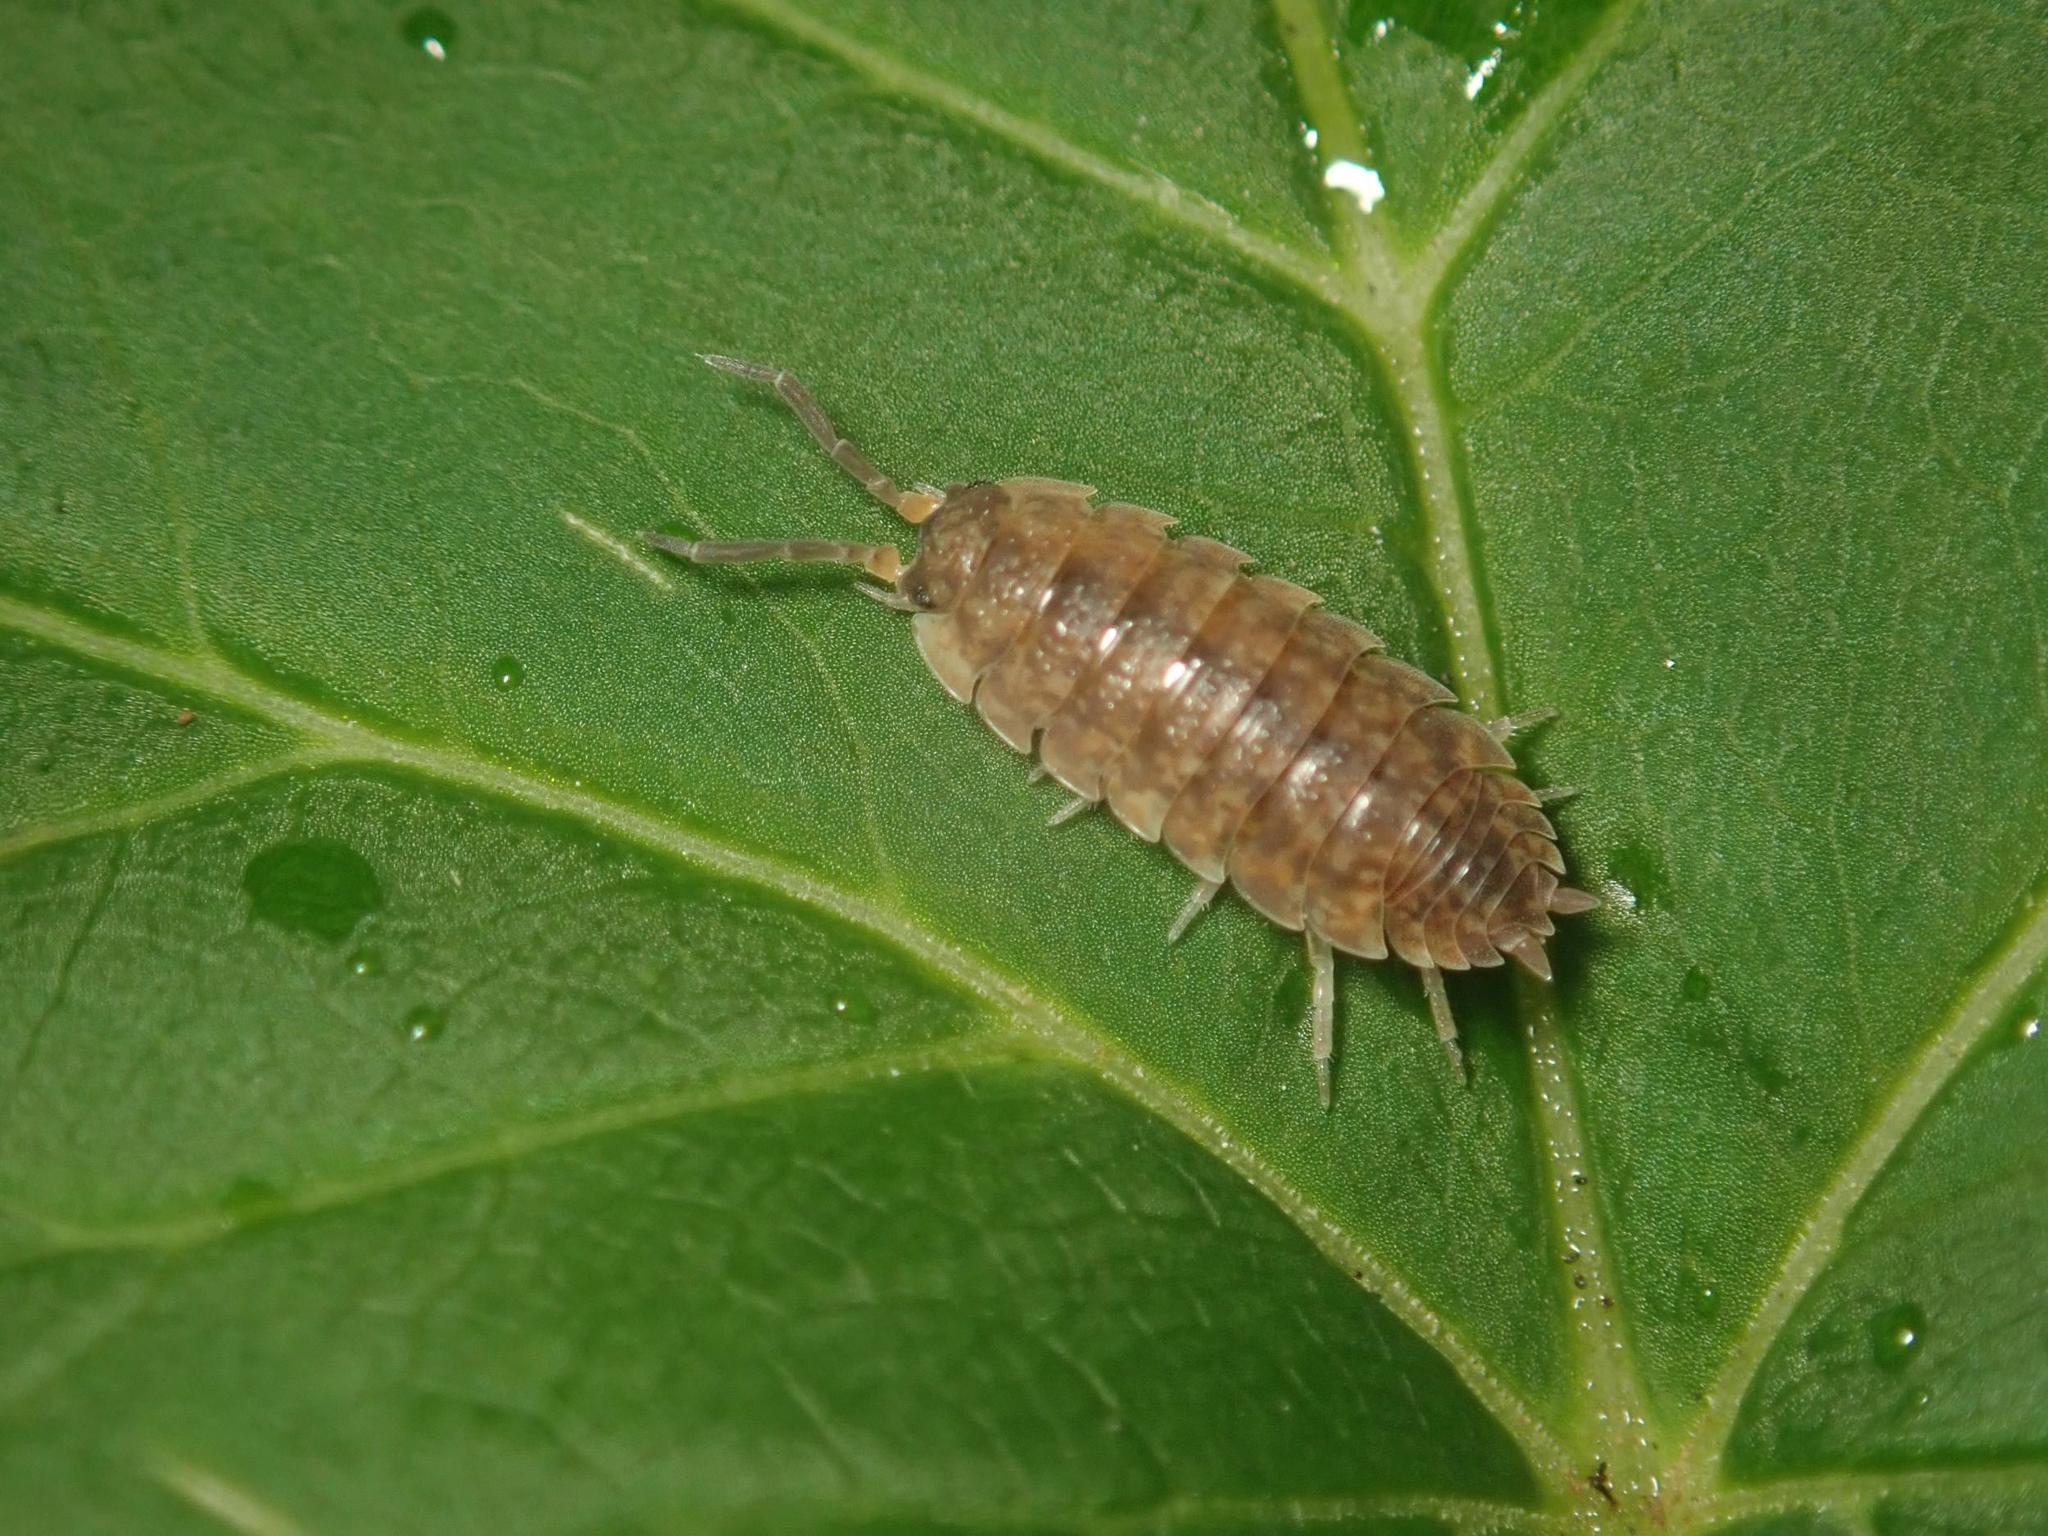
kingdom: Animalia
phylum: Arthropoda
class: Malacostraca
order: Isopoda
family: Porcellionidae
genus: Porcellio
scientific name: Porcellio scaber
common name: Common rough woodlouse
